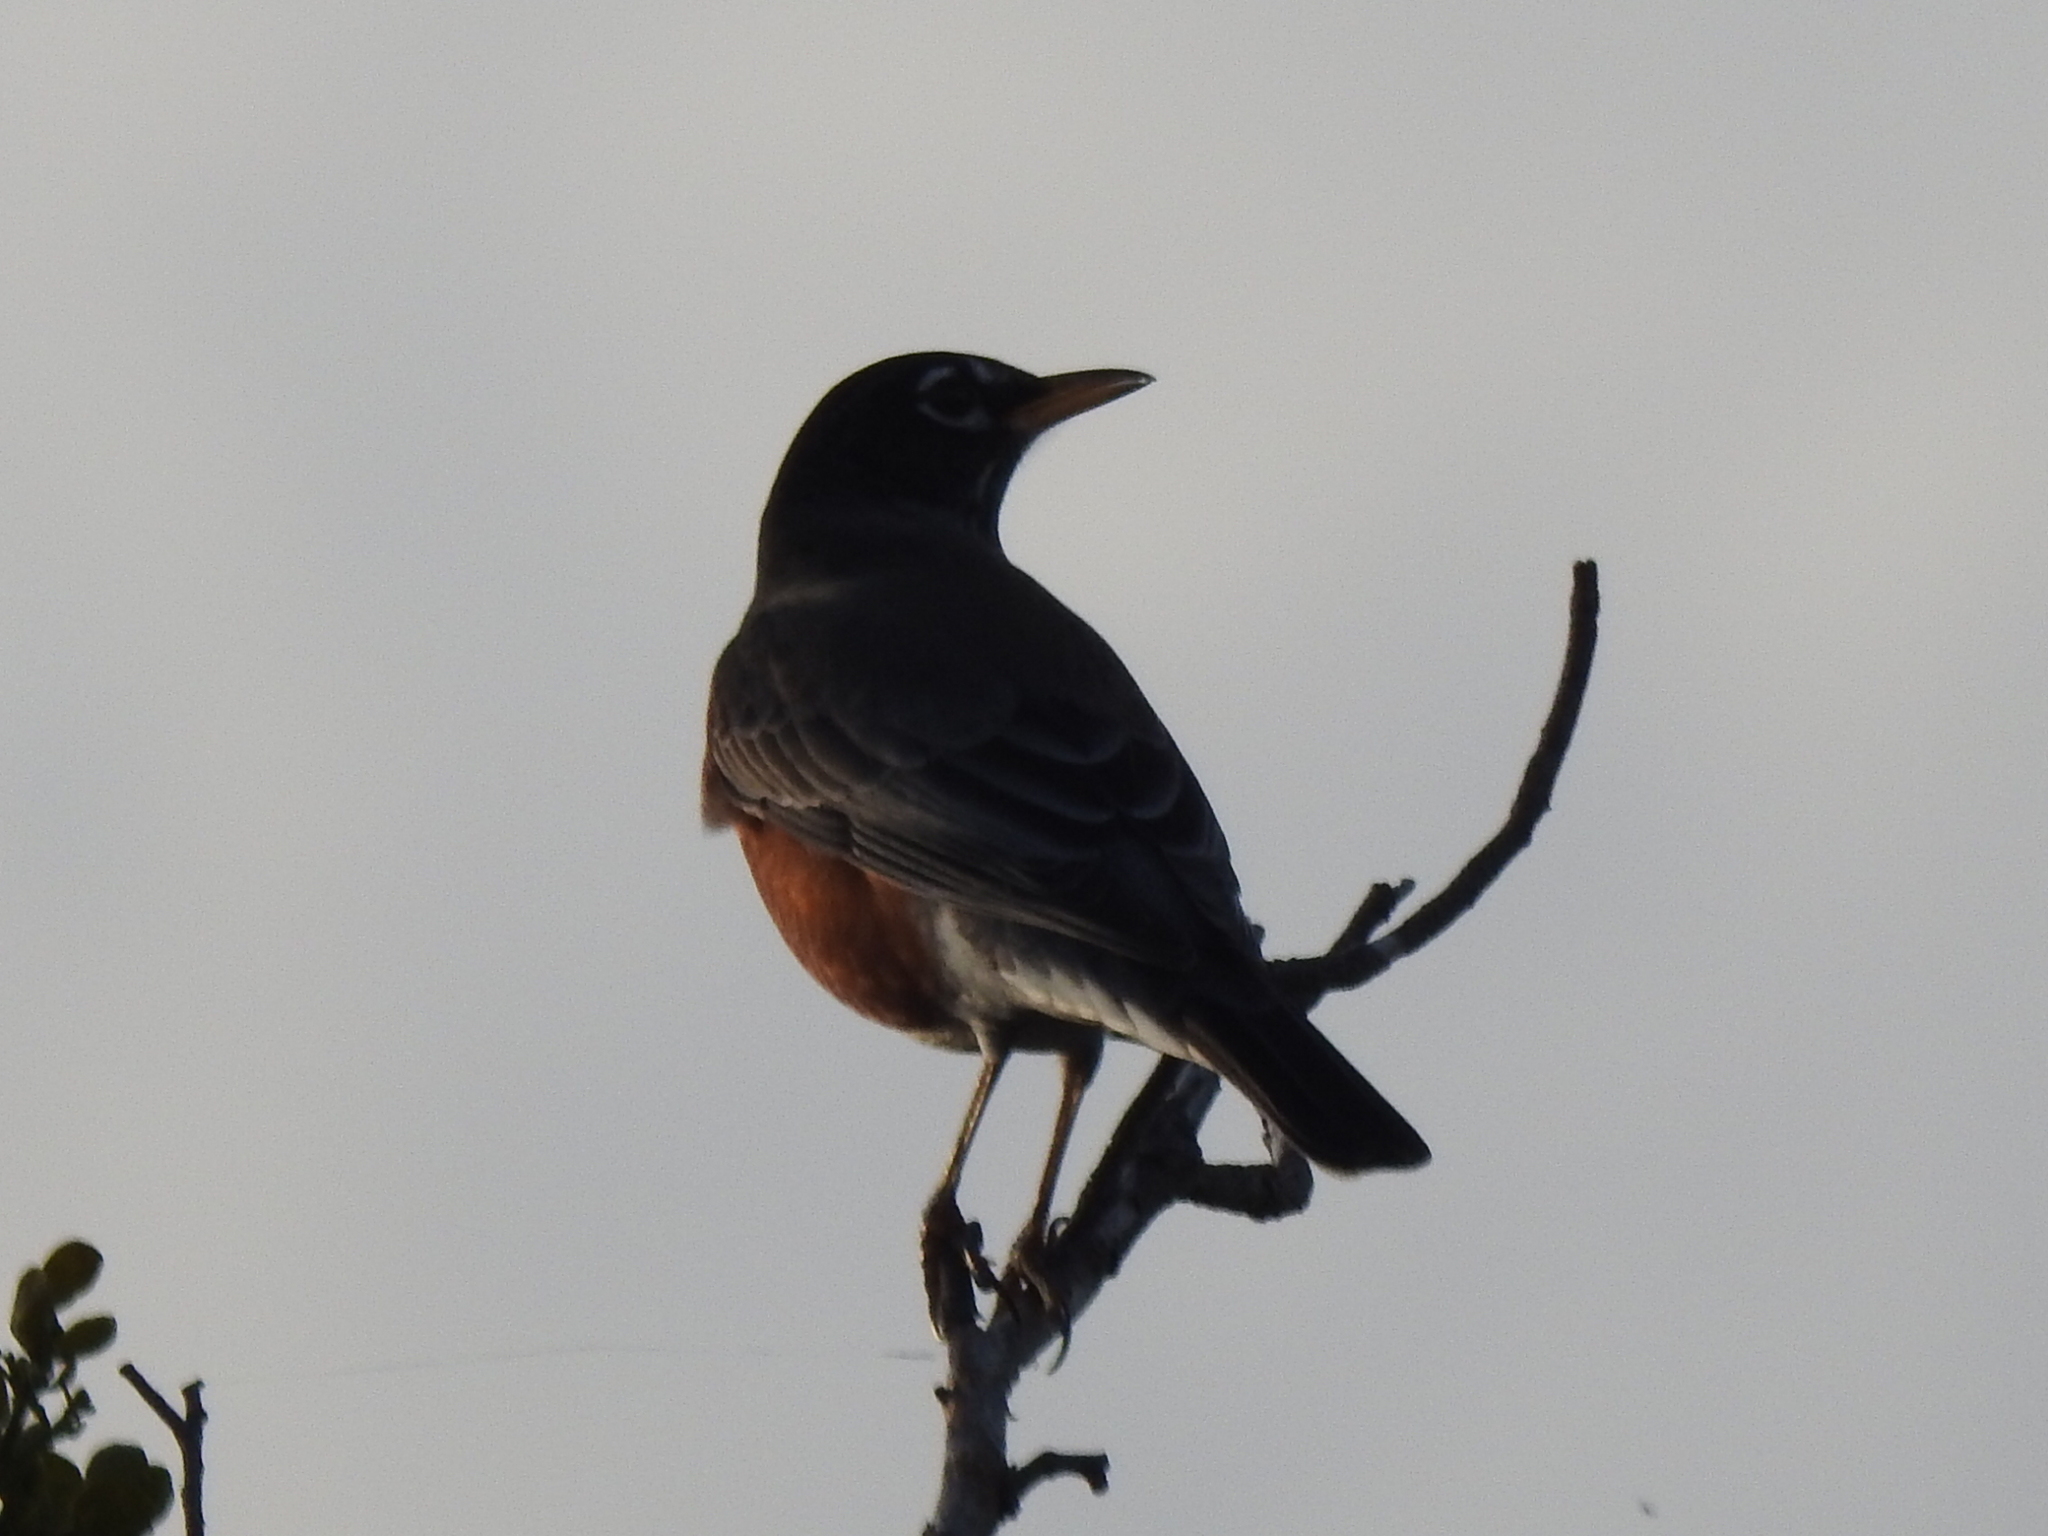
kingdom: Animalia
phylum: Chordata
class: Aves
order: Passeriformes
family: Turdidae
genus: Turdus
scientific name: Turdus migratorius
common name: American robin
